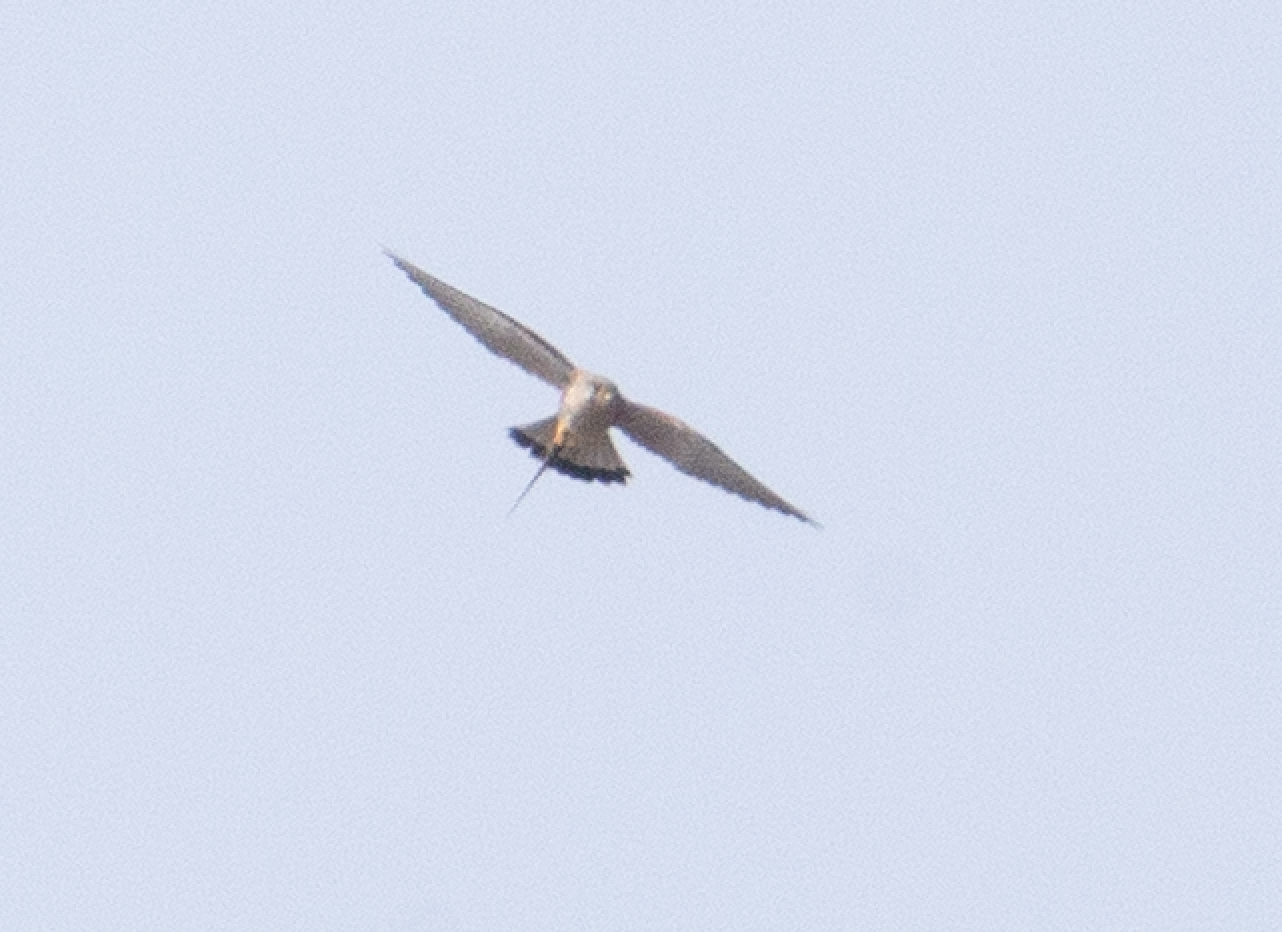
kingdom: Animalia
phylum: Chordata
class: Aves
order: Falconiformes
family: Falconidae
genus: Falco
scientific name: Falco tinnunculus
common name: Common kestrel
